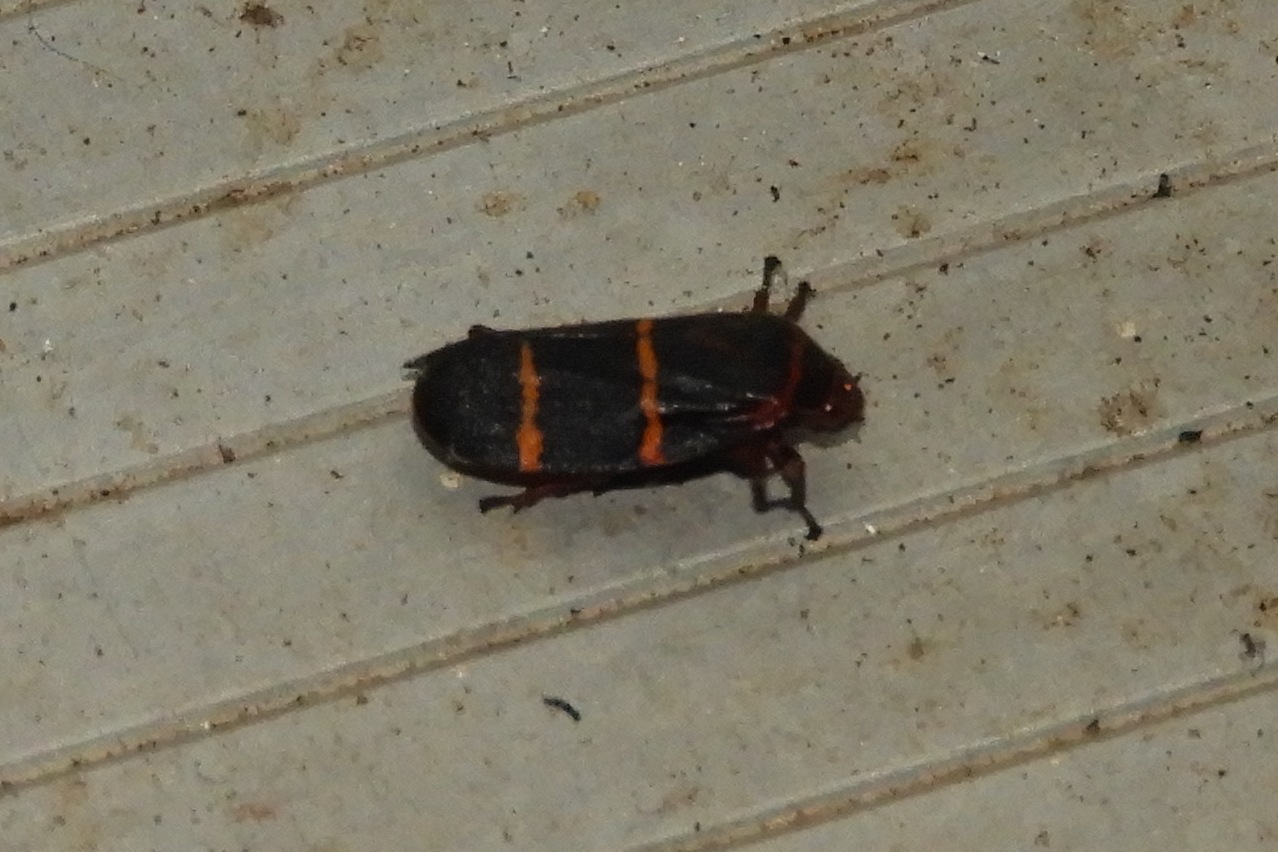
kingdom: Animalia
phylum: Arthropoda
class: Insecta
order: Hemiptera
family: Cercopidae
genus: Prosapia
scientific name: Prosapia bicincta
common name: Twolined spittlebug
